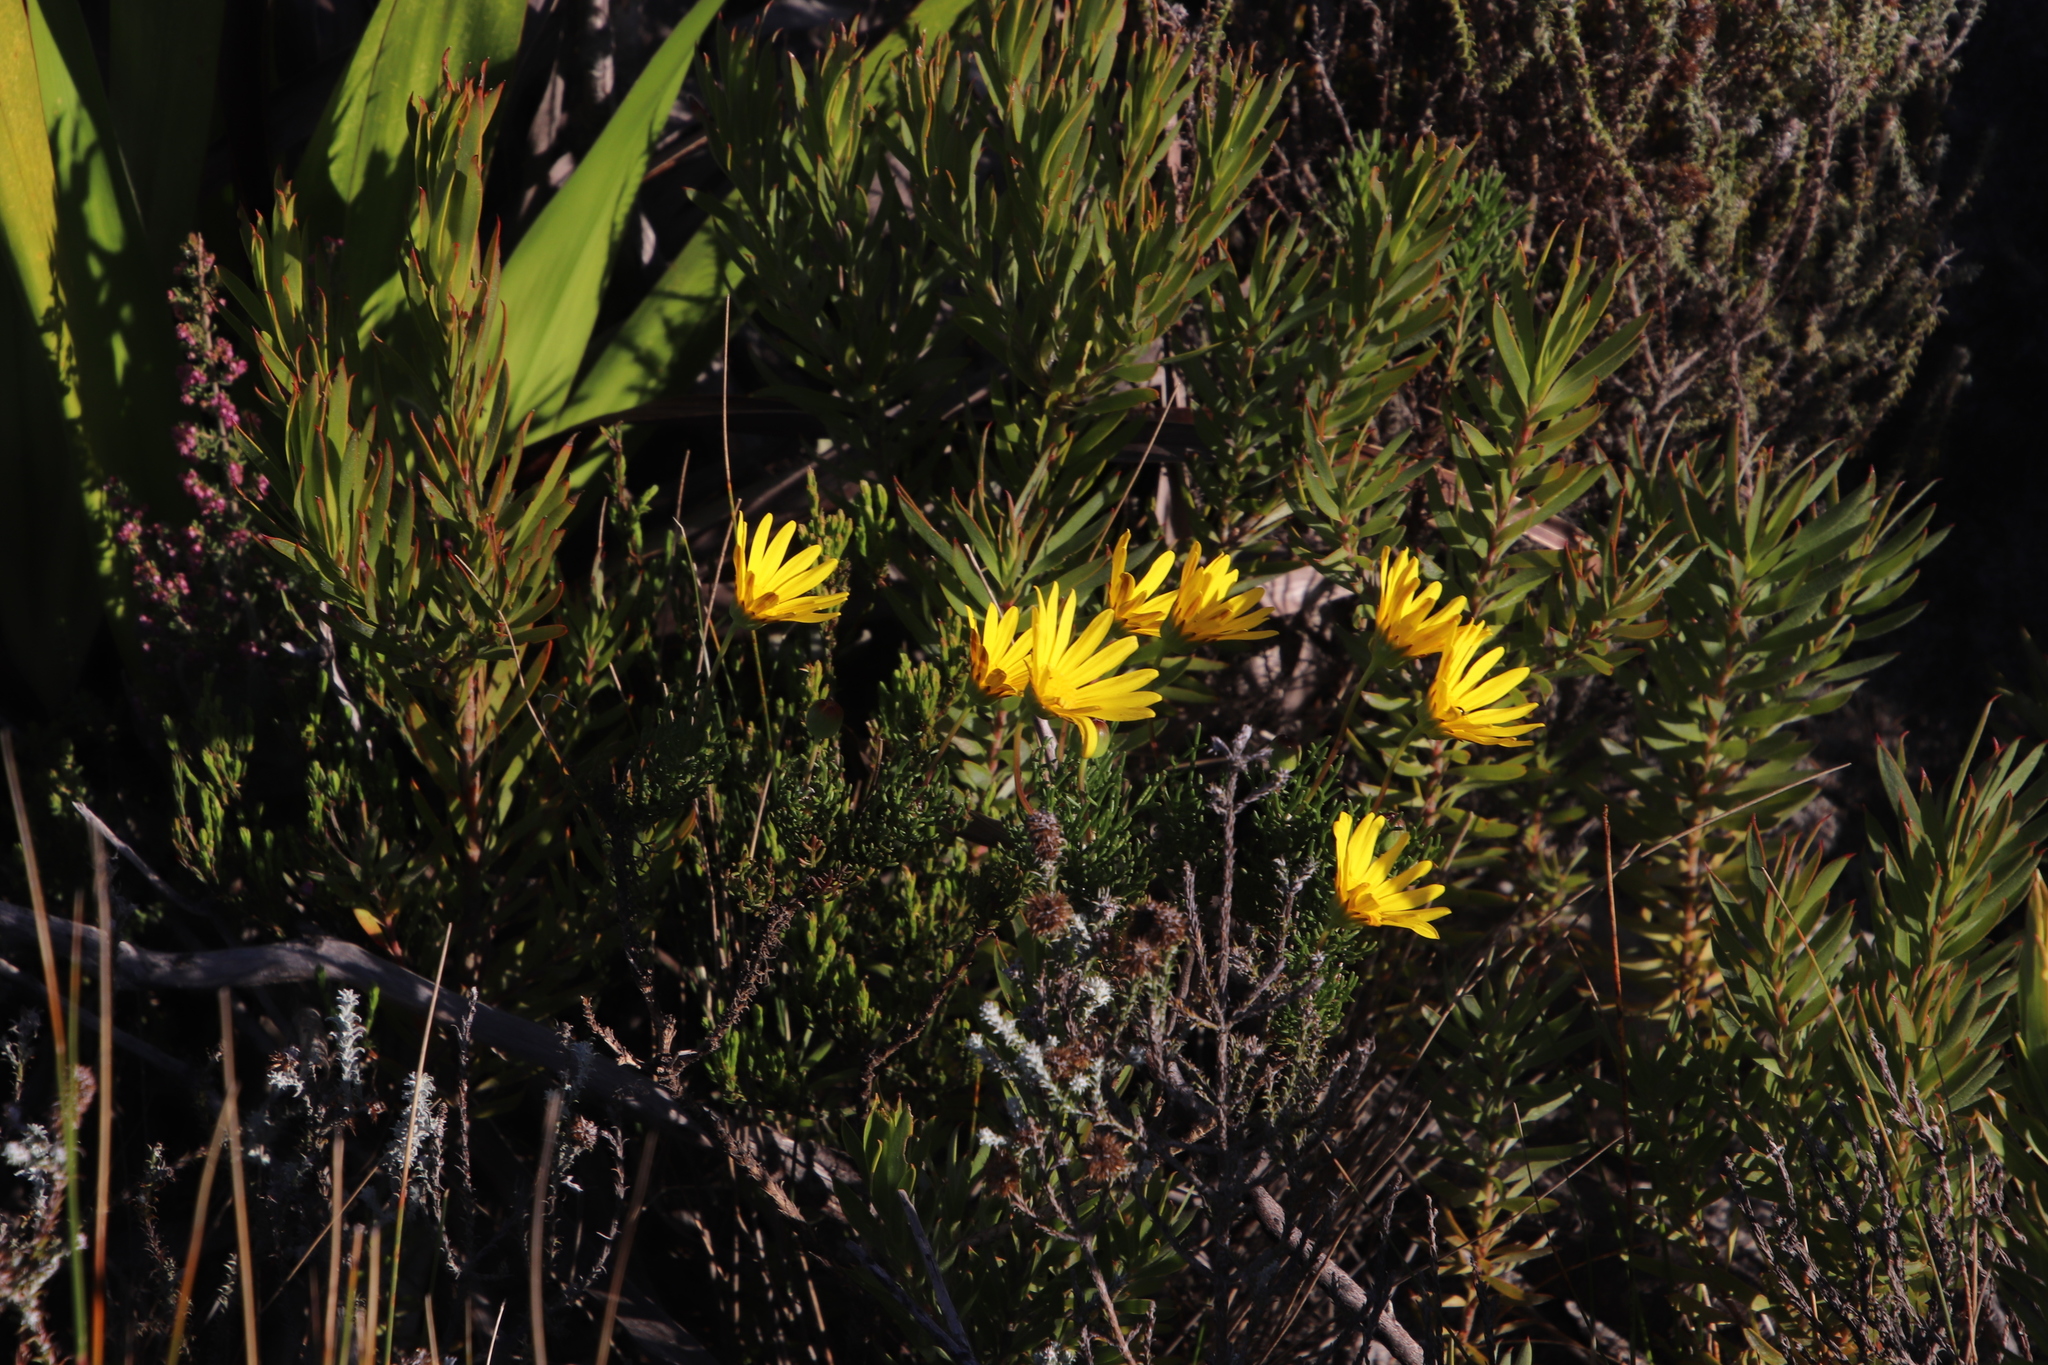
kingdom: Plantae
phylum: Tracheophyta
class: Magnoliopsida
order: Asterales
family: Asteraceae
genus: Euryops
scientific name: Euryops abrotanifolius
